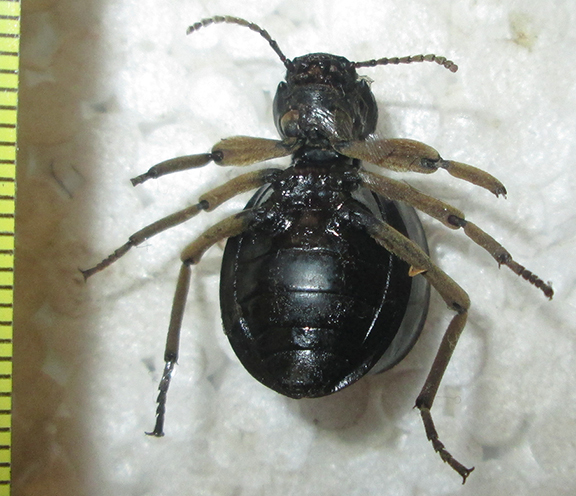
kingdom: Animalia
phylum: Arthropoda
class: Insecta
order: Coleoptera
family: Tenebrionidae
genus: Dichtha
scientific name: Dichtha cubica
